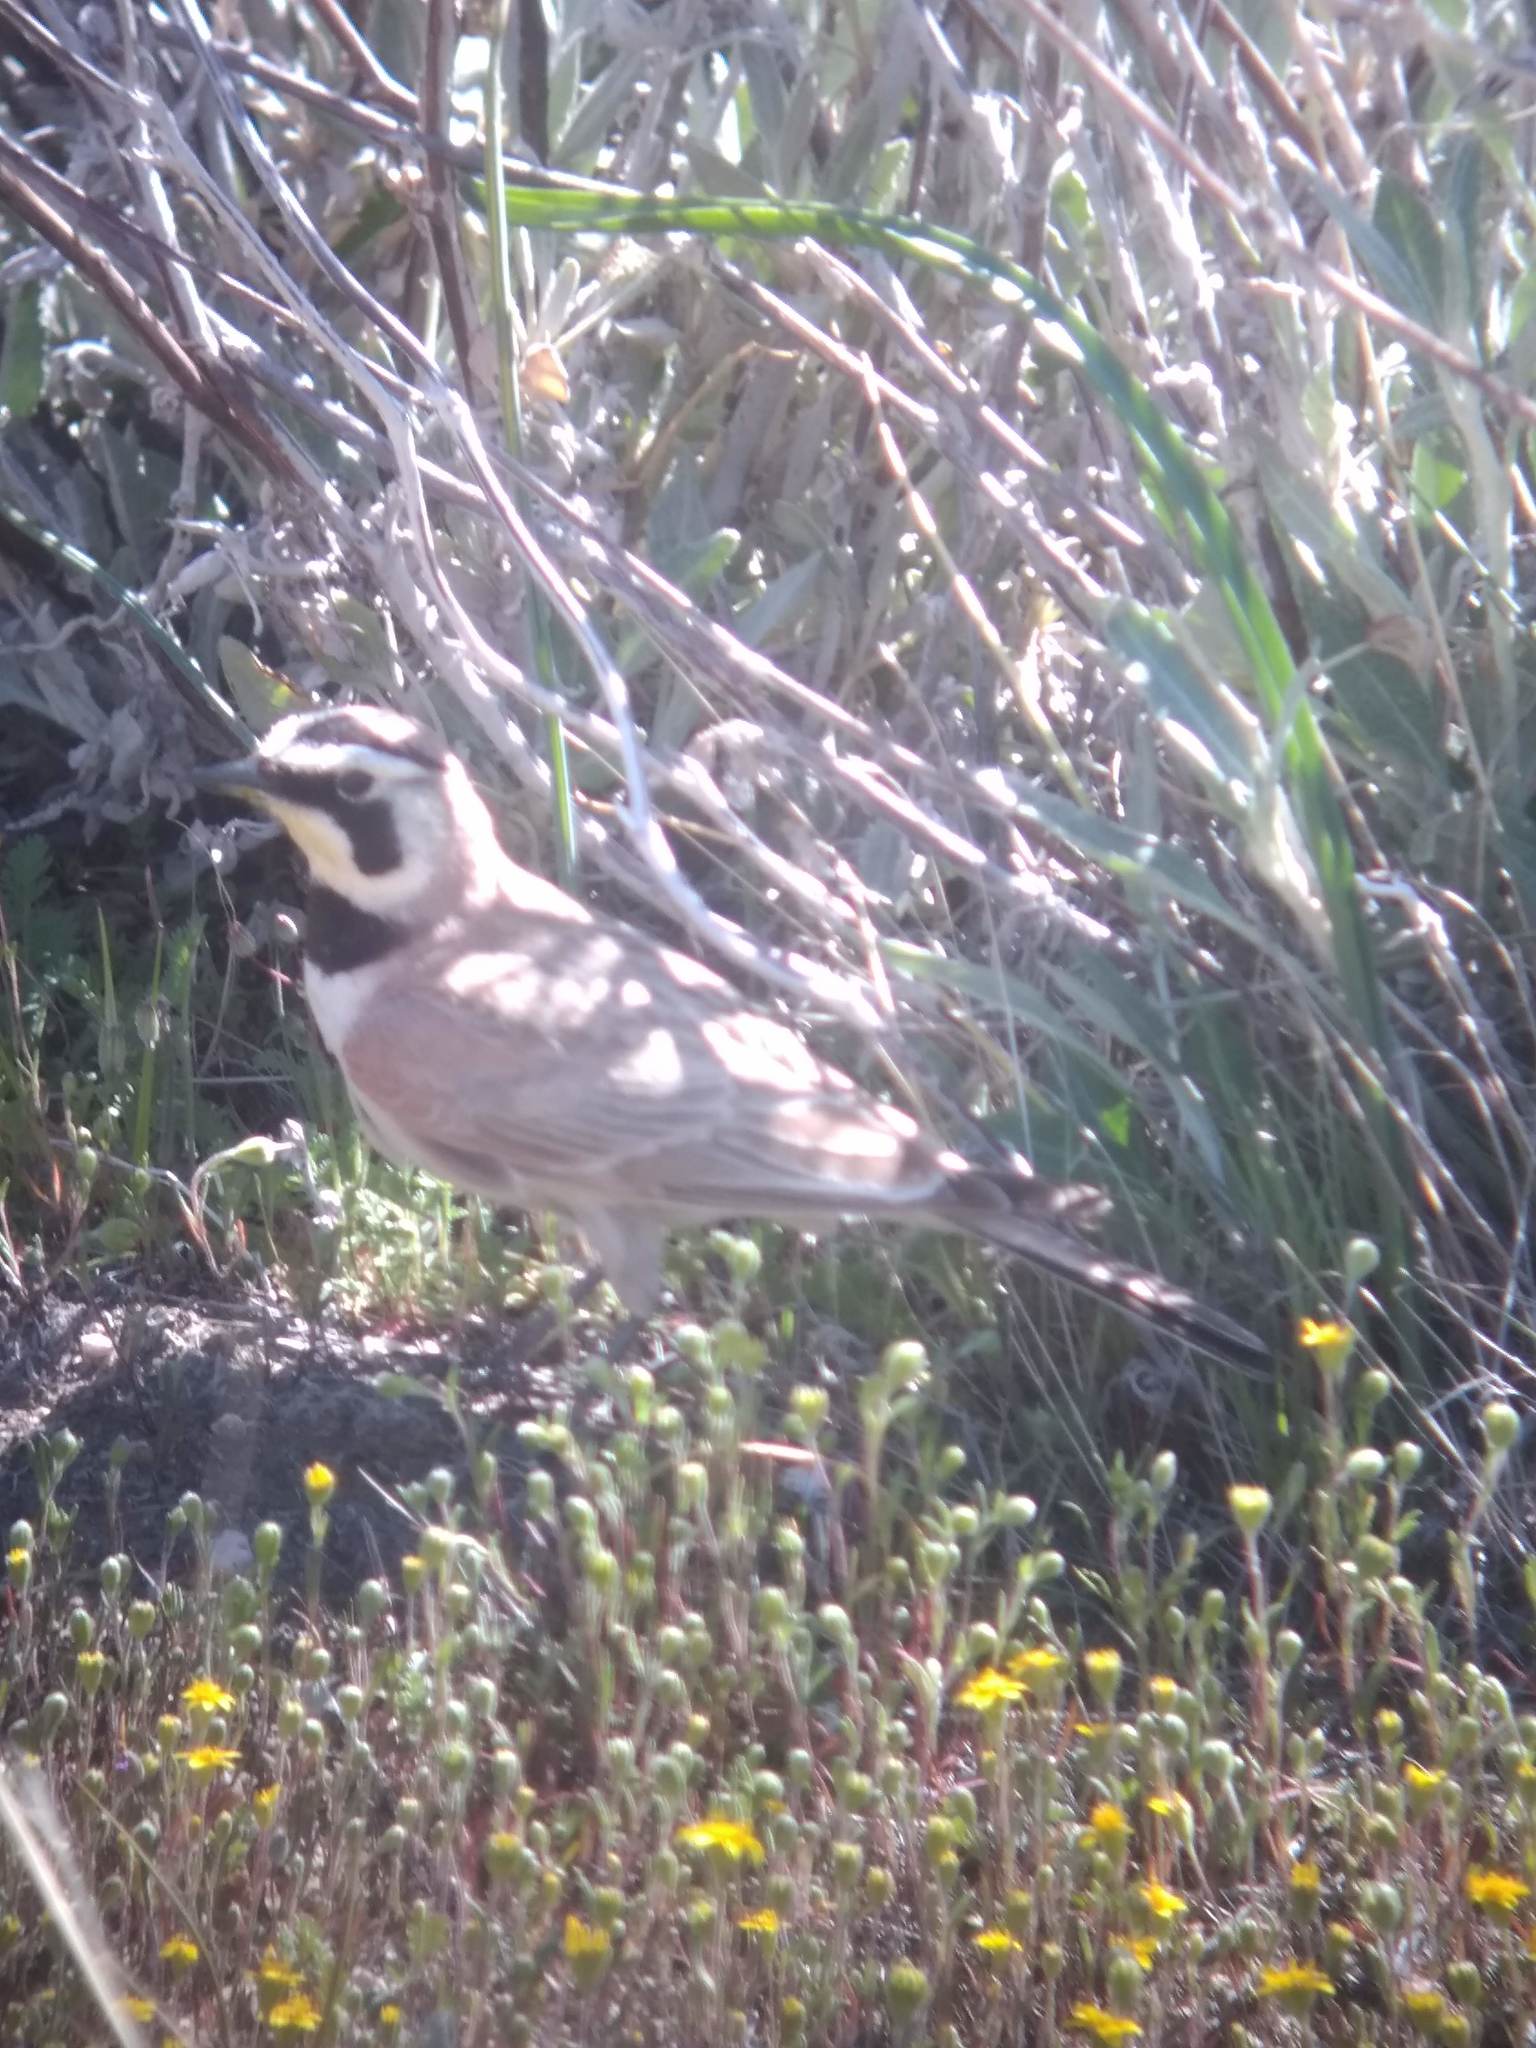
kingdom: Animalia
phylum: Chordata
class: Aves
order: Passeriformes
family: Alaudidae
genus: Eremophila
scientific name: Eremophila alpestris
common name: Horned lark
